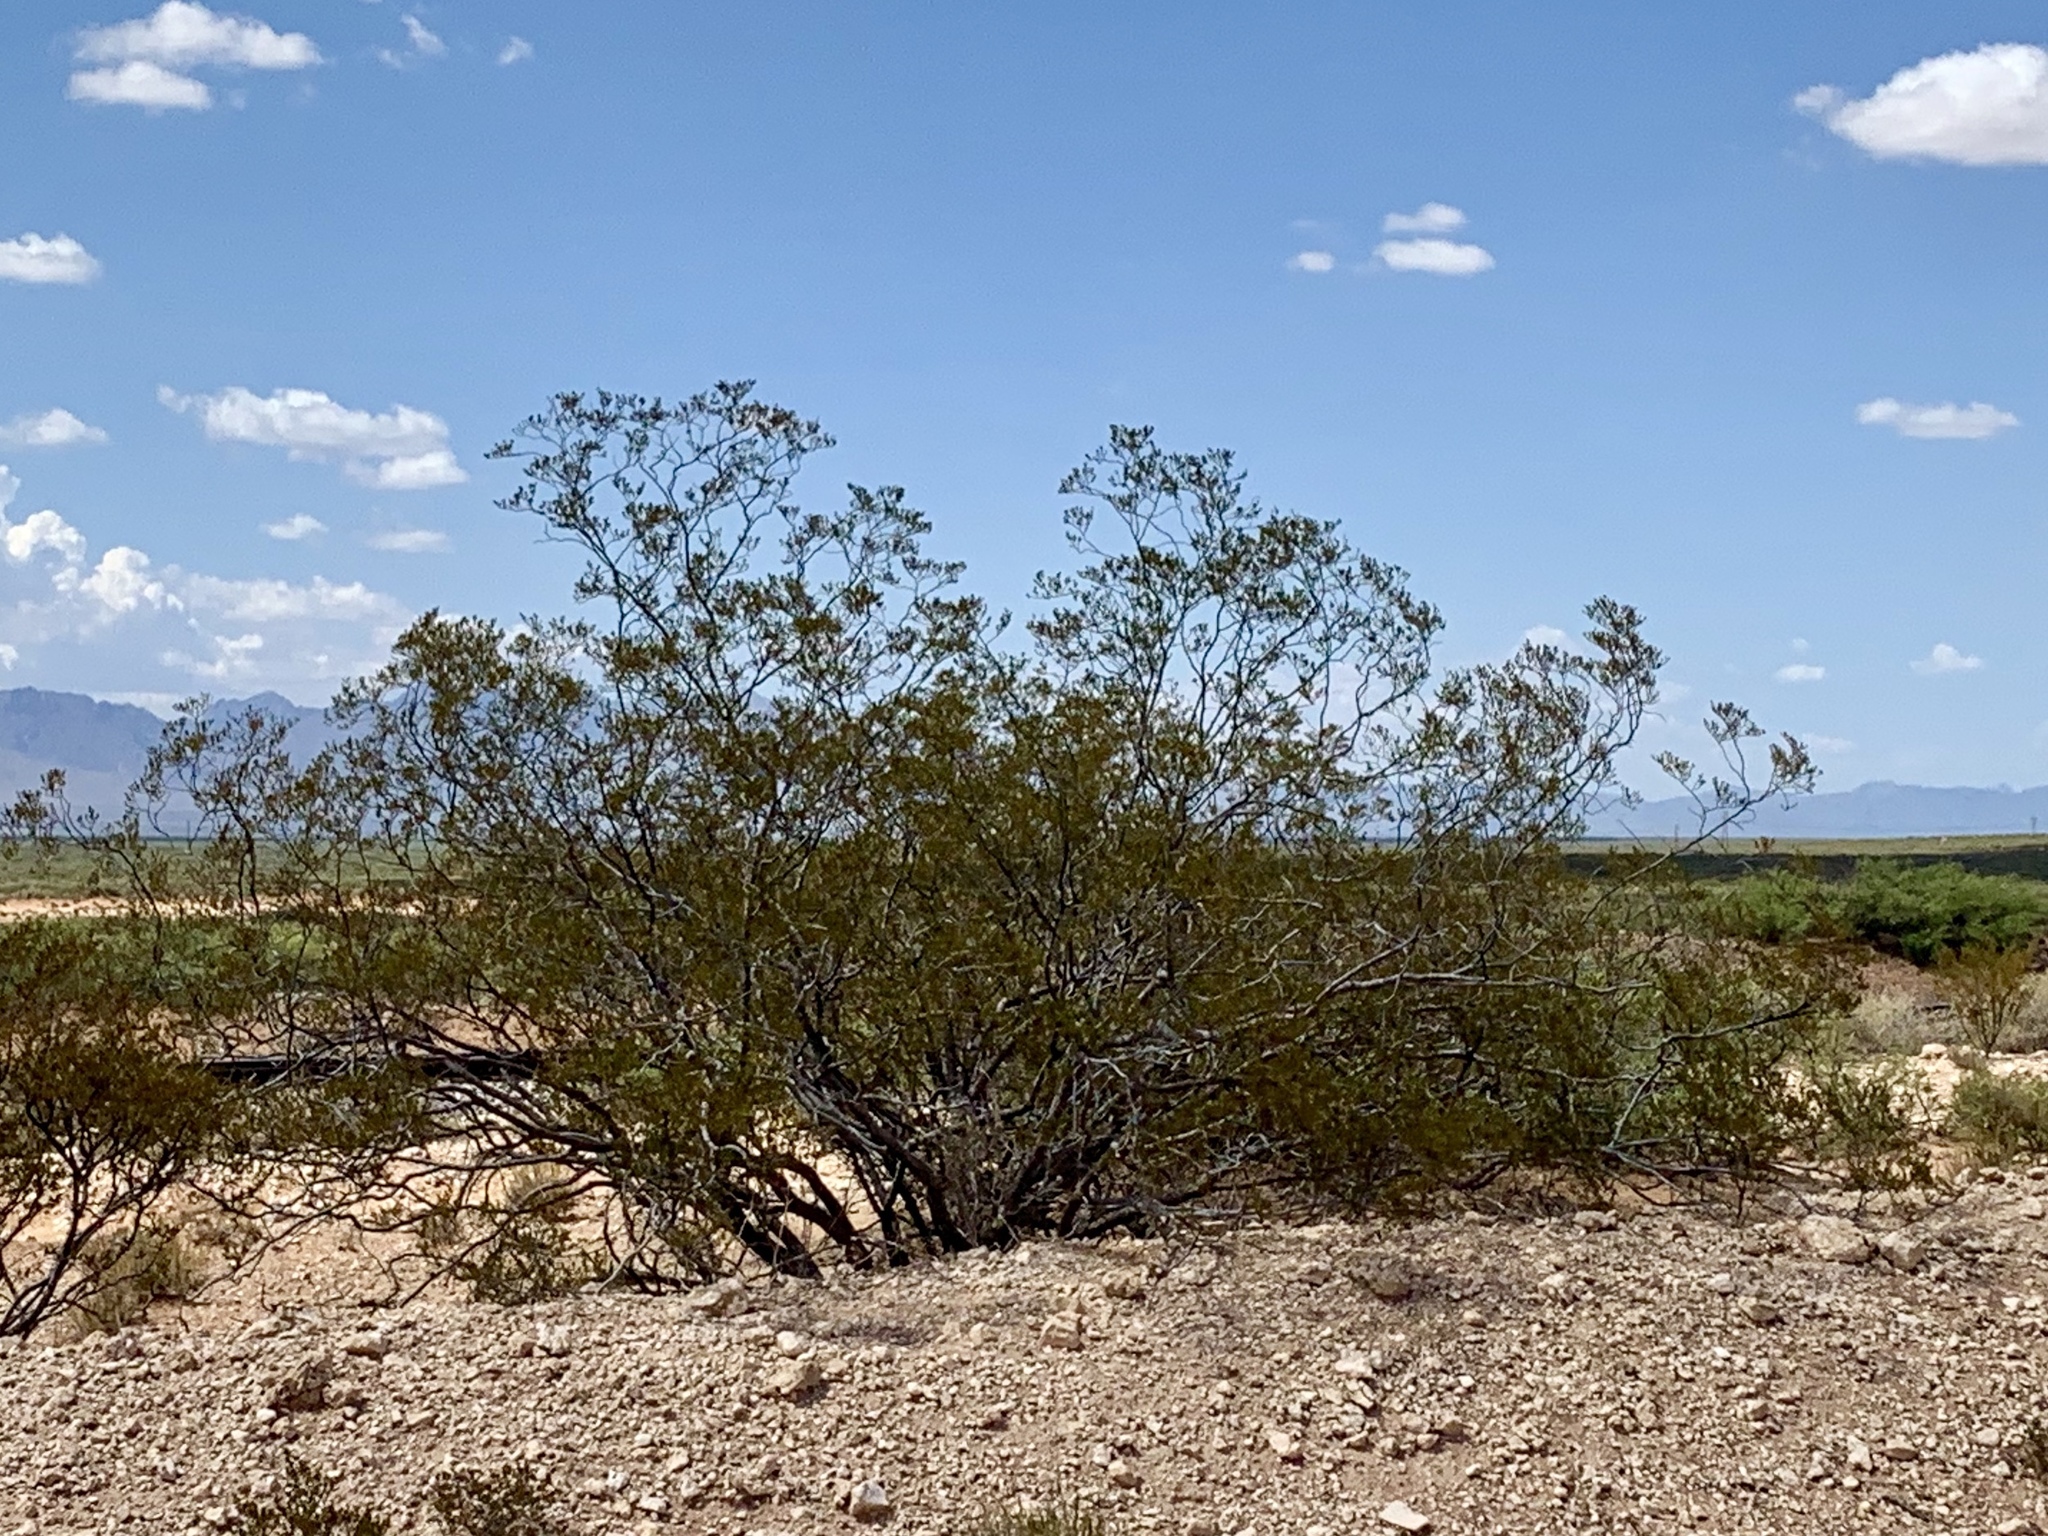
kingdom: Plantae
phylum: Tracheophyta
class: Magnoliopsida
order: Zygophyllales
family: Zygophyllaceae
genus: Larrea
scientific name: Larrea tridentata
